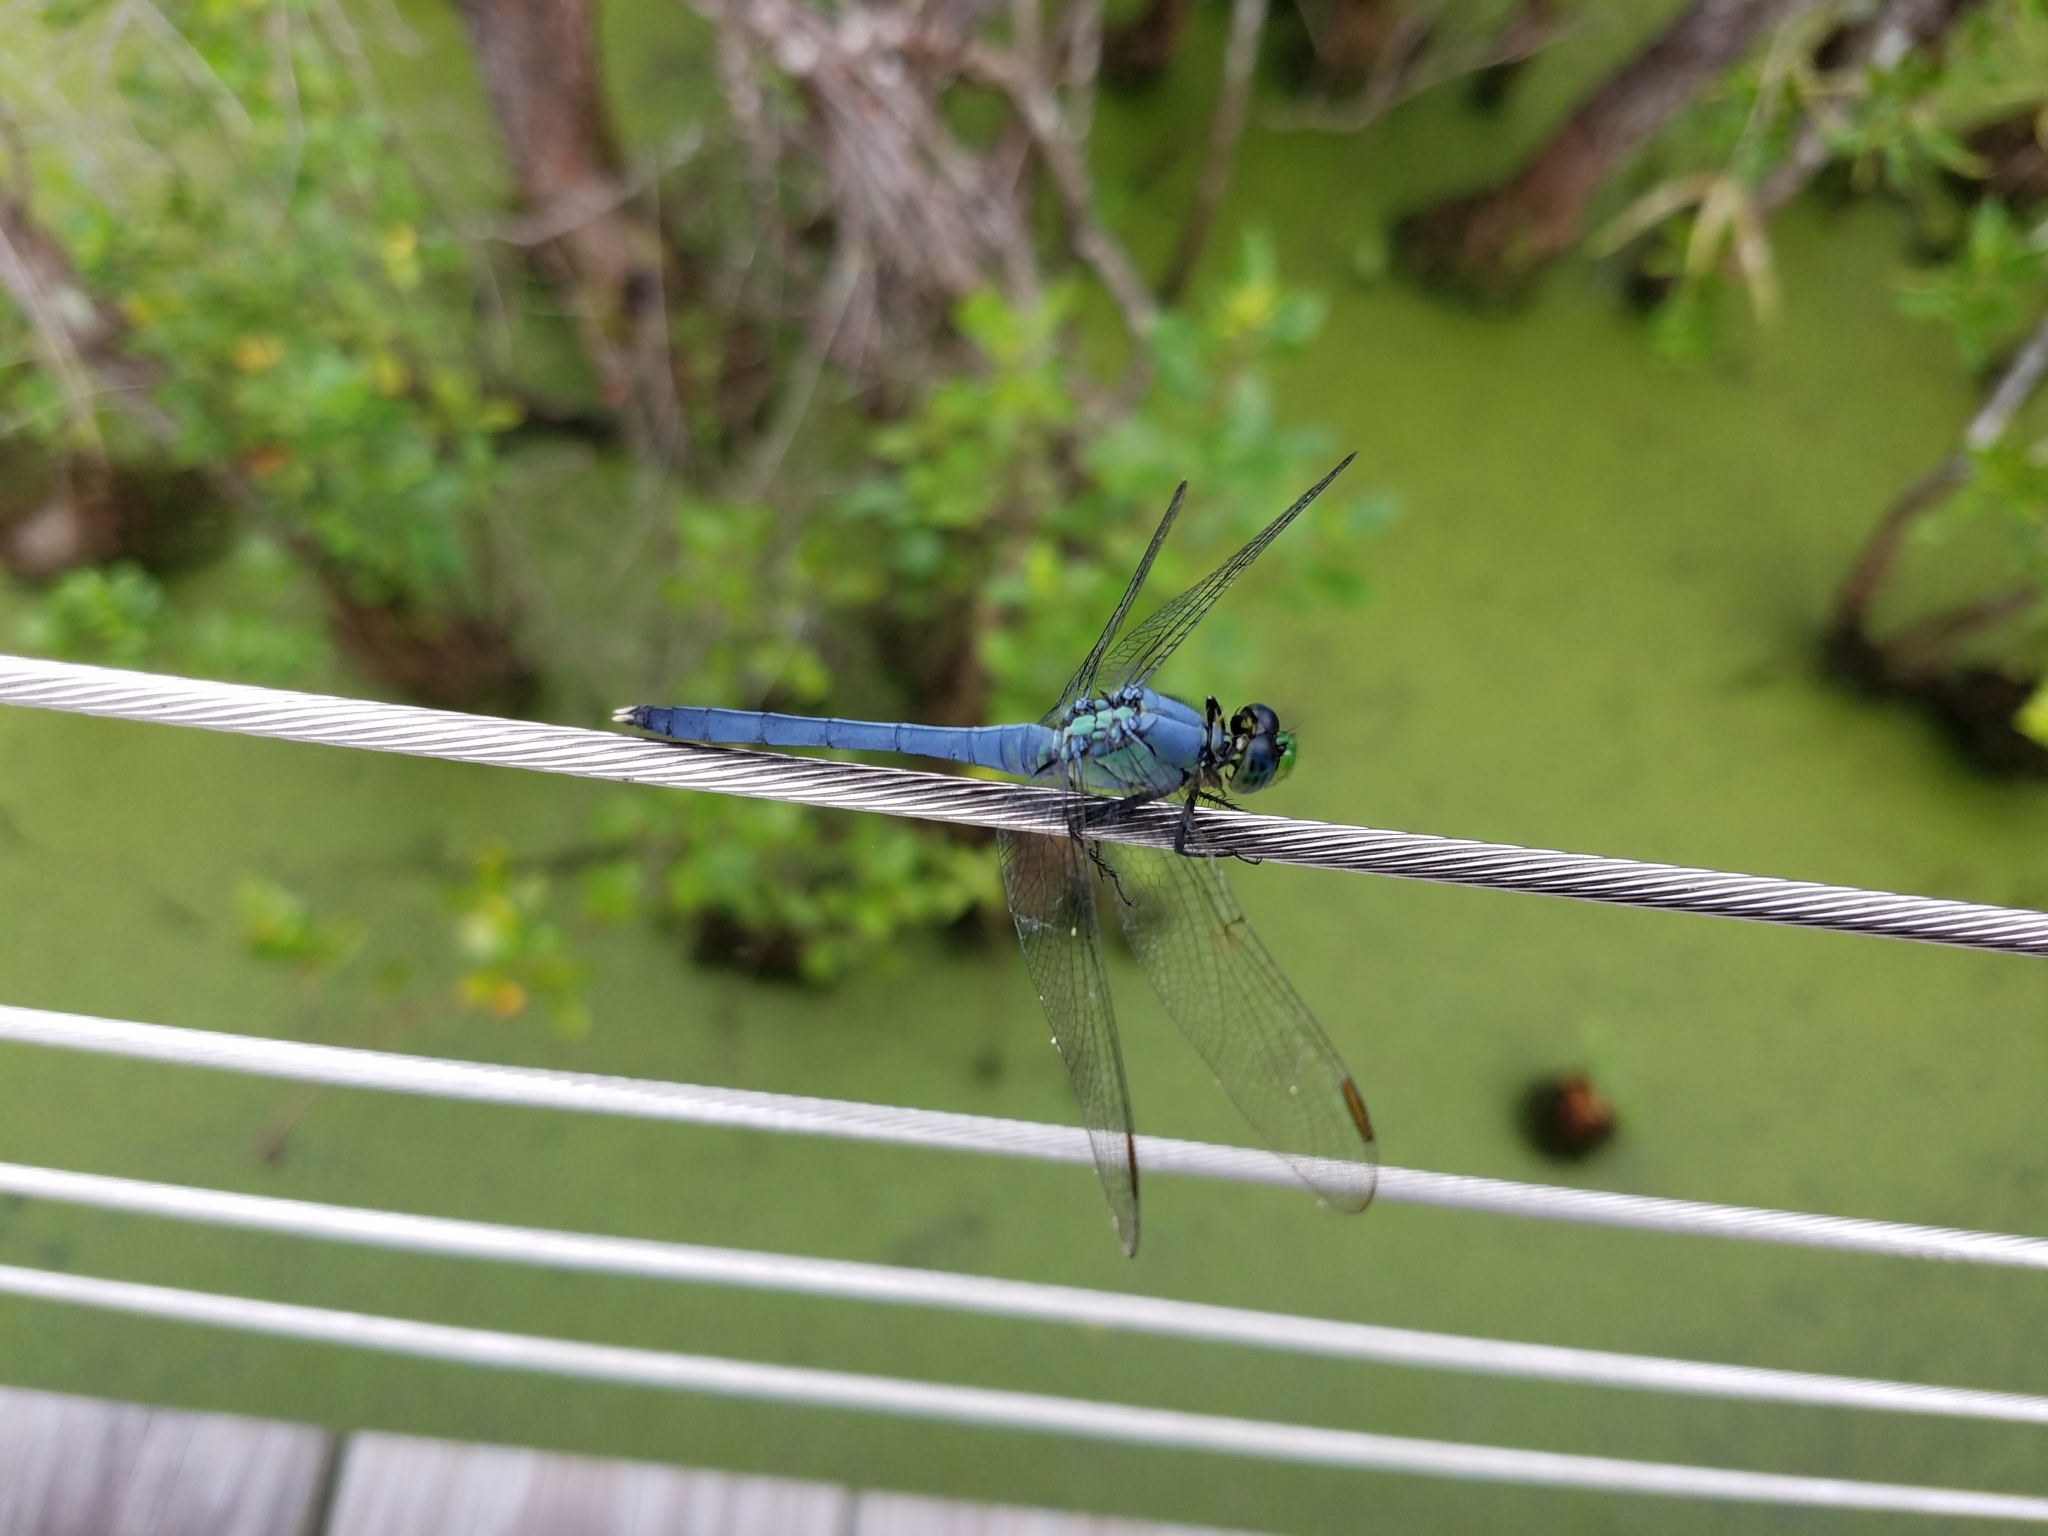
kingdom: Animalia
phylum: Arthropoda
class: Insecta
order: Odonata
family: Libellulidae
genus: Erythemis
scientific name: Erythemis simplicicollis
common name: Eastern pondhawk
